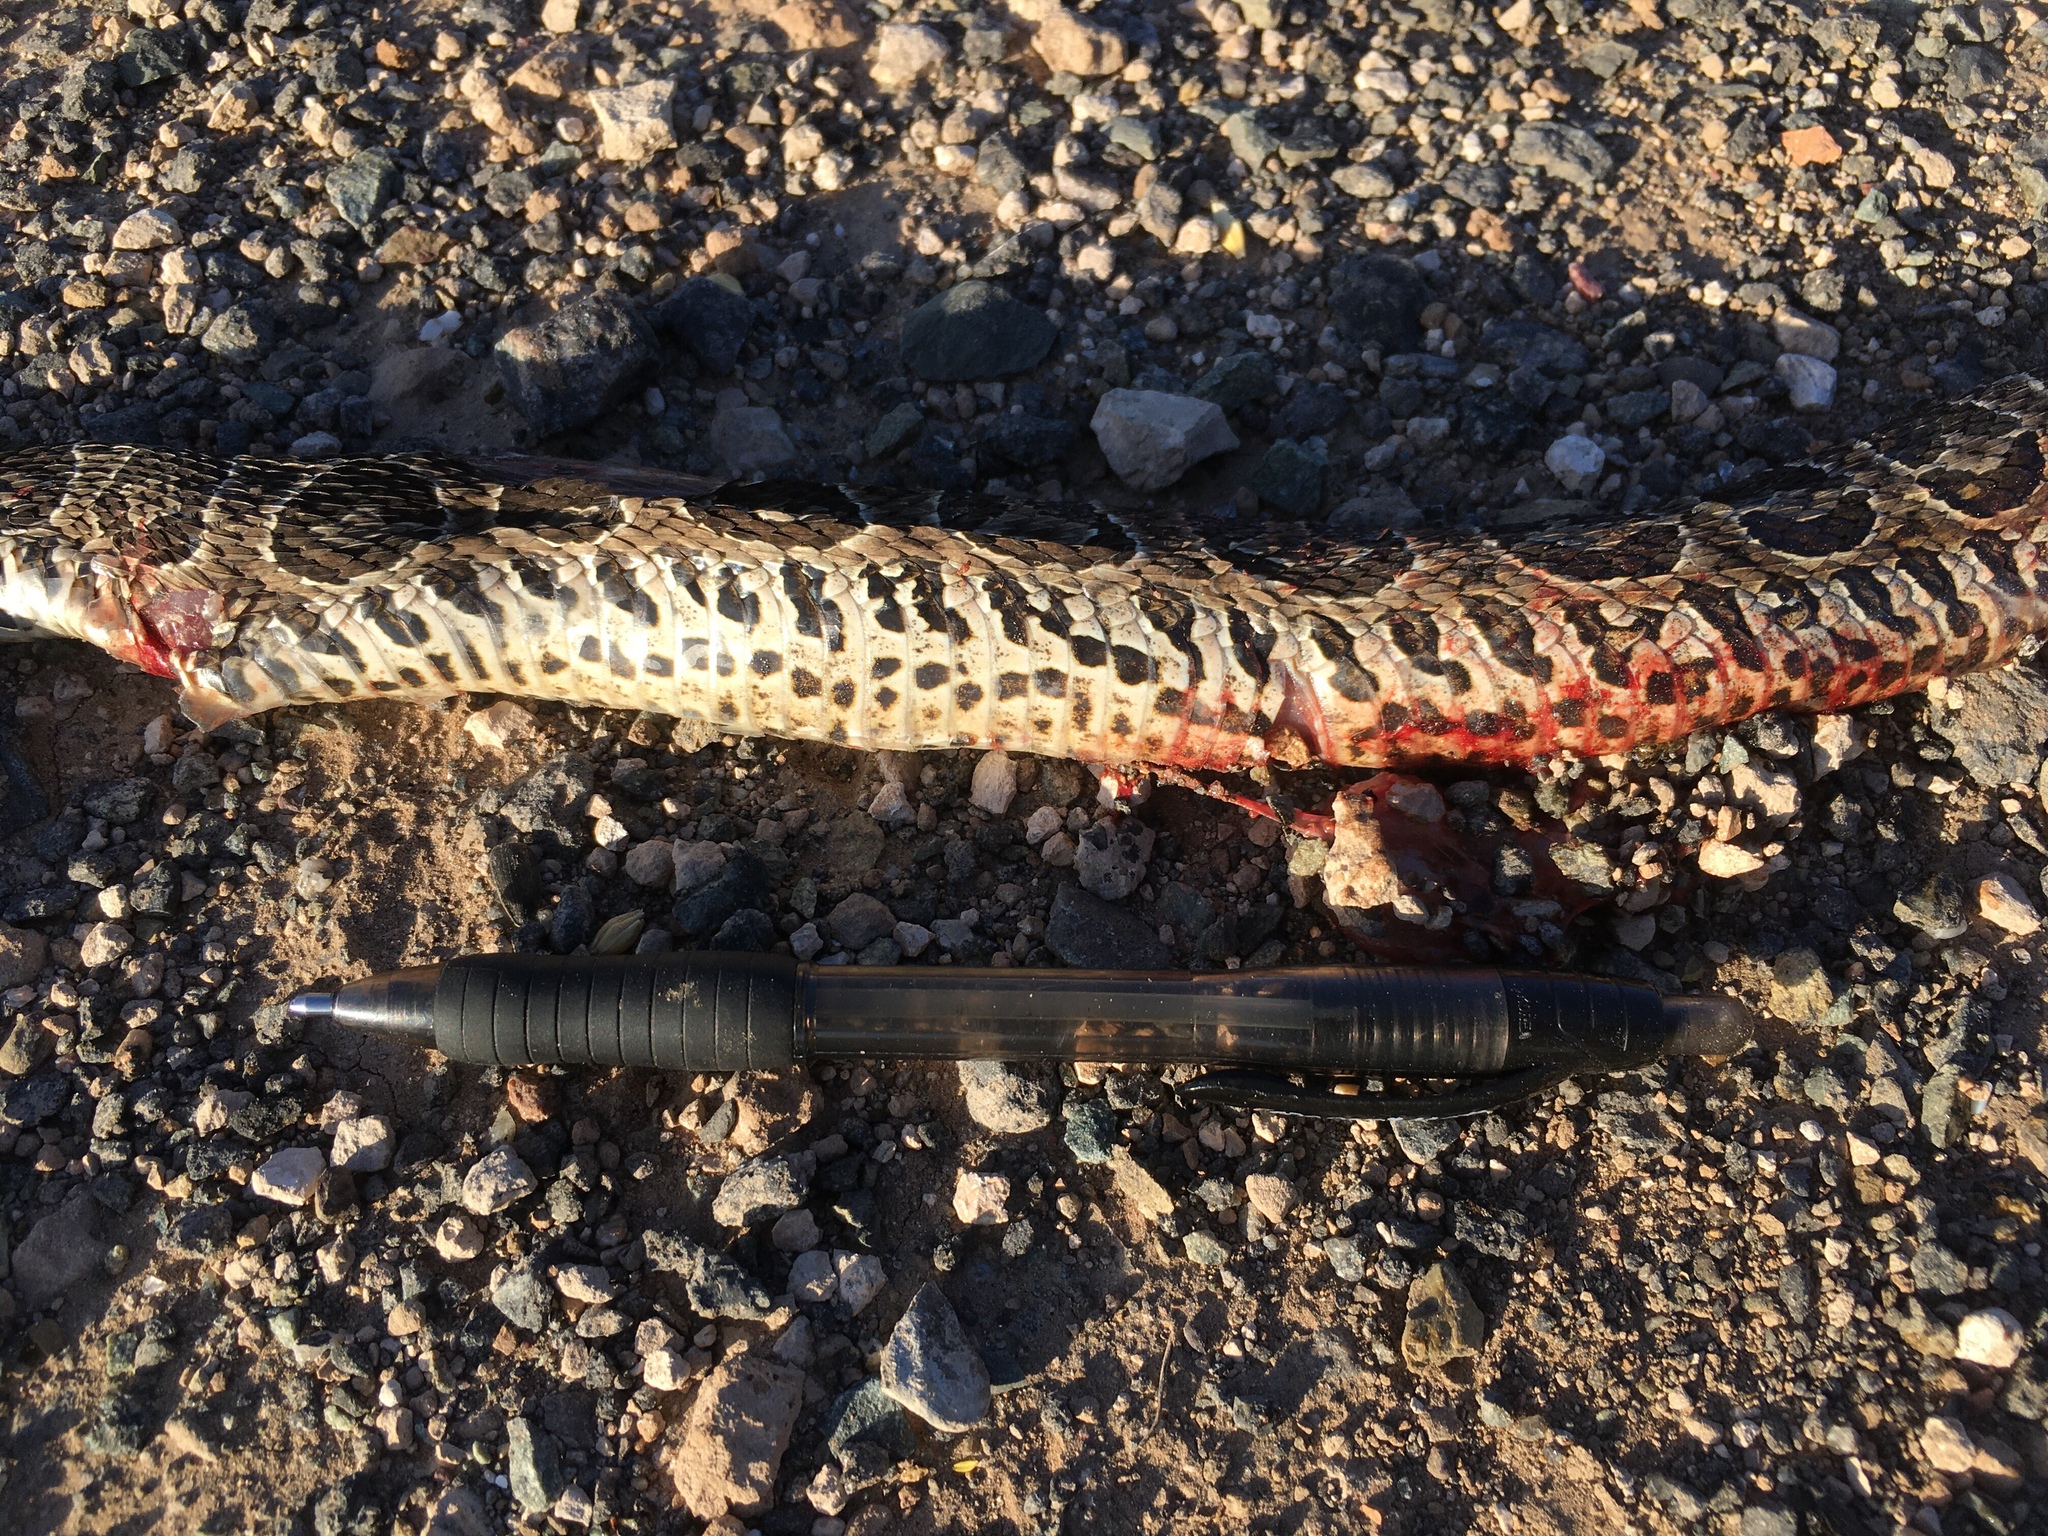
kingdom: Animalia
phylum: Chordata
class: Squamata
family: Viperidae
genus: Bothrops
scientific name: Bothrops alternatus
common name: Urutu
